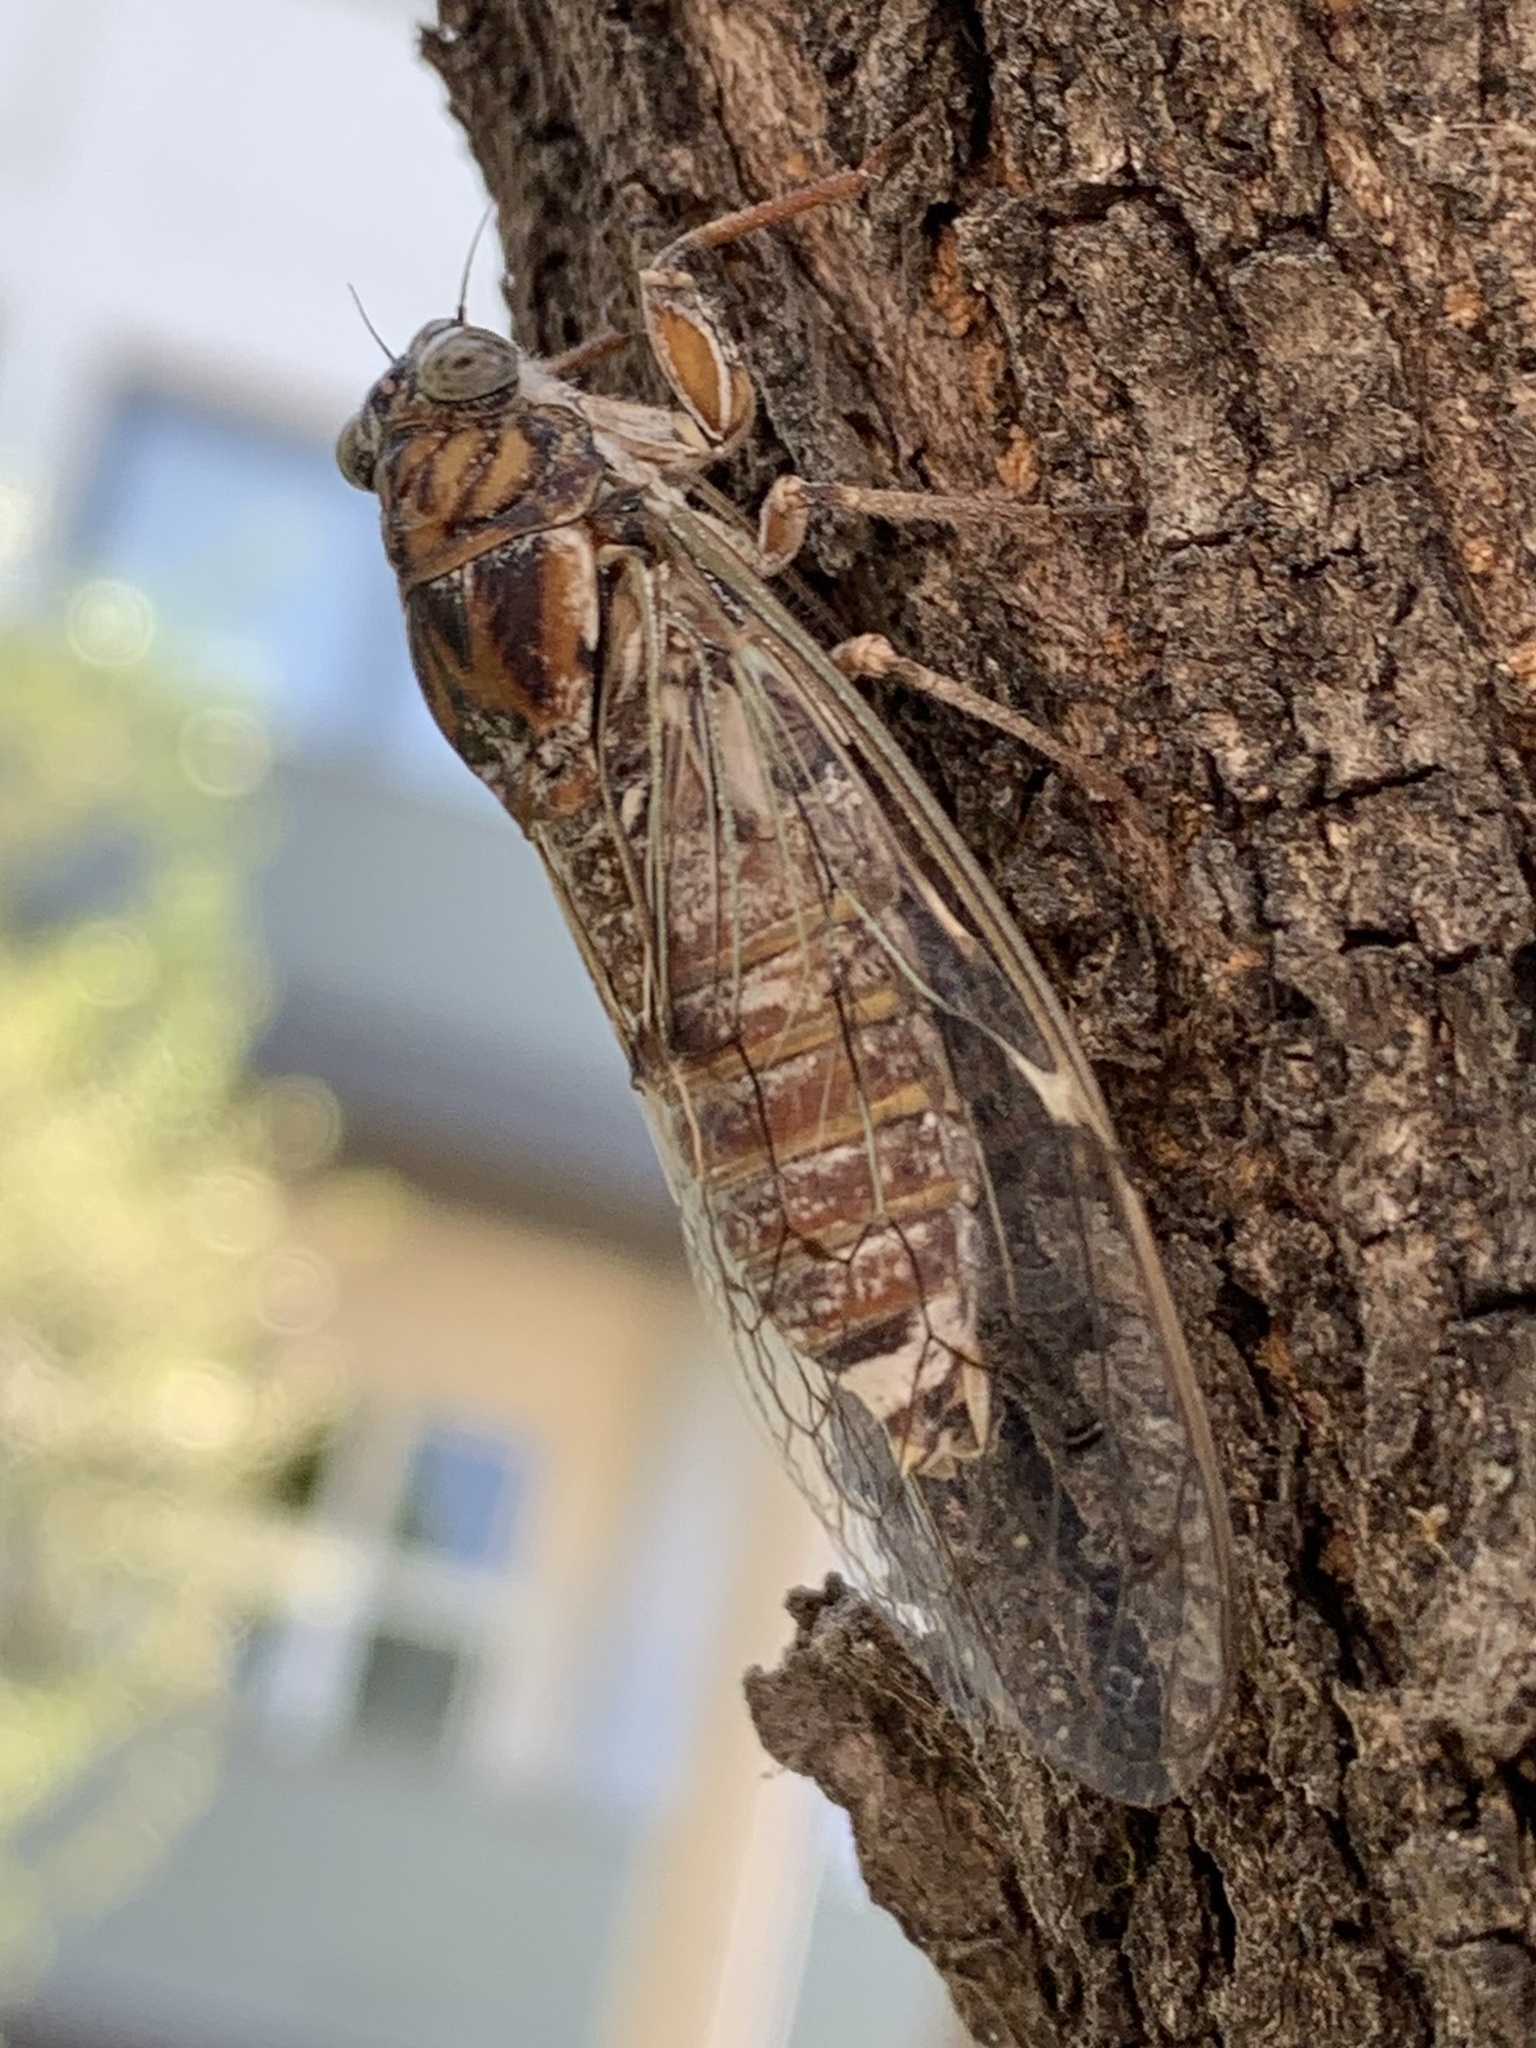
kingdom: Animalia
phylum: Arthropoda
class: Insecta
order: Hemiptera
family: Cicadidae
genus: Cicada
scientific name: Cicada orni
